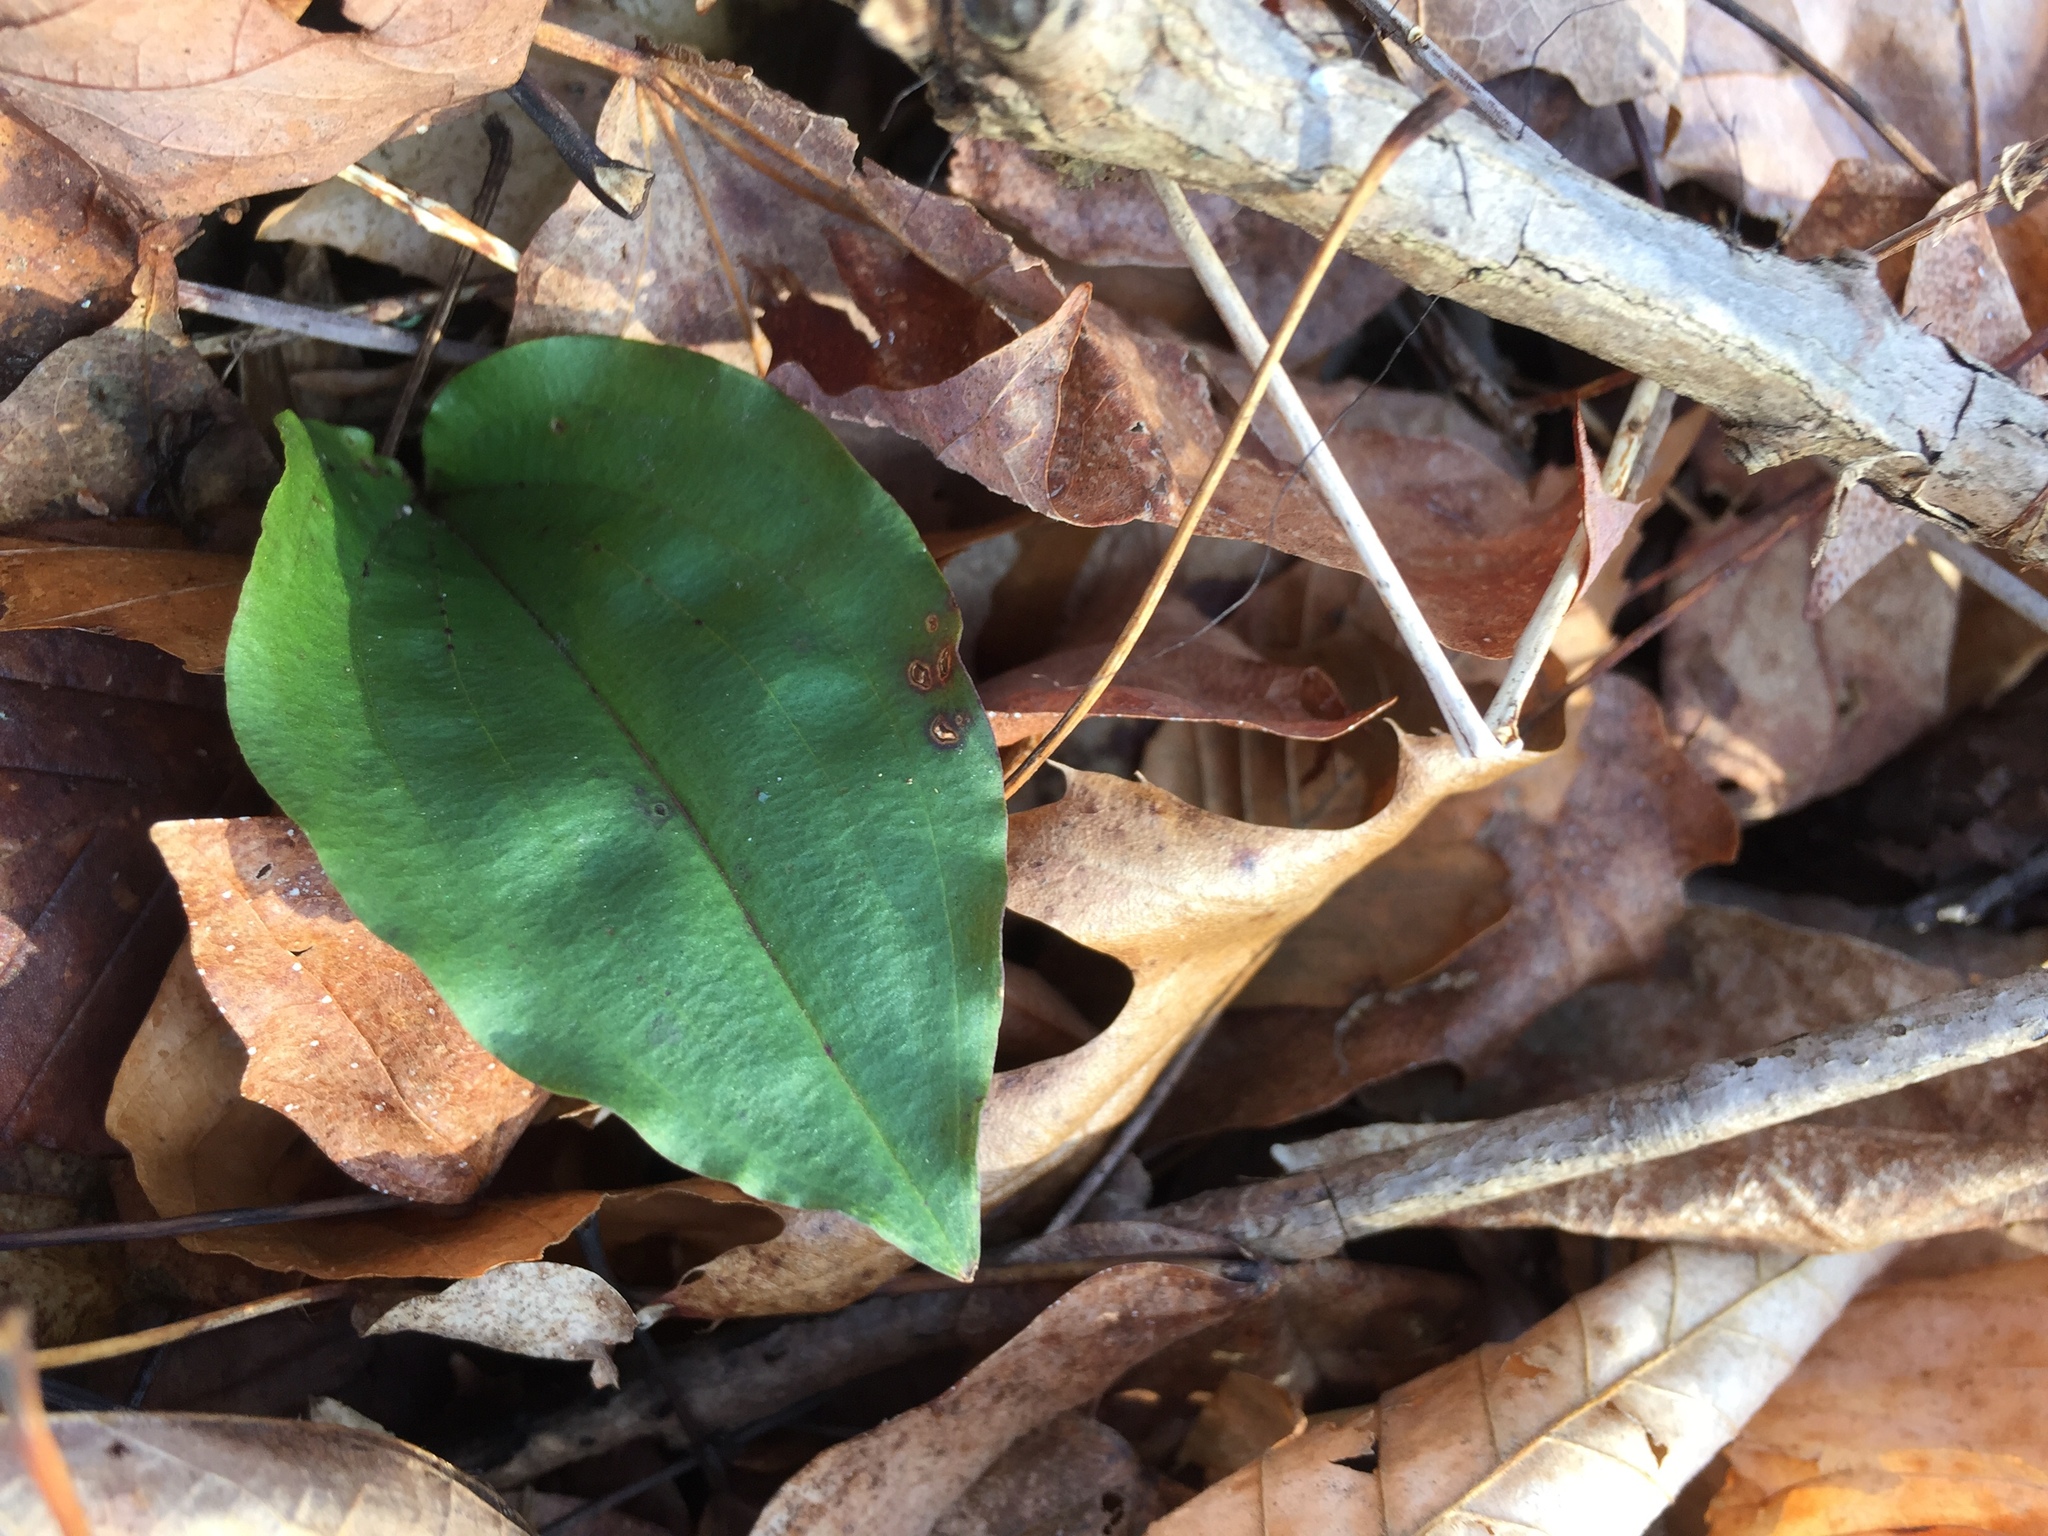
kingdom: Plantae
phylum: Tracheophyta
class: Liliopsida
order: Asparagales
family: Orchidaceae
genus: Tipularia
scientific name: Tipularia discolor
